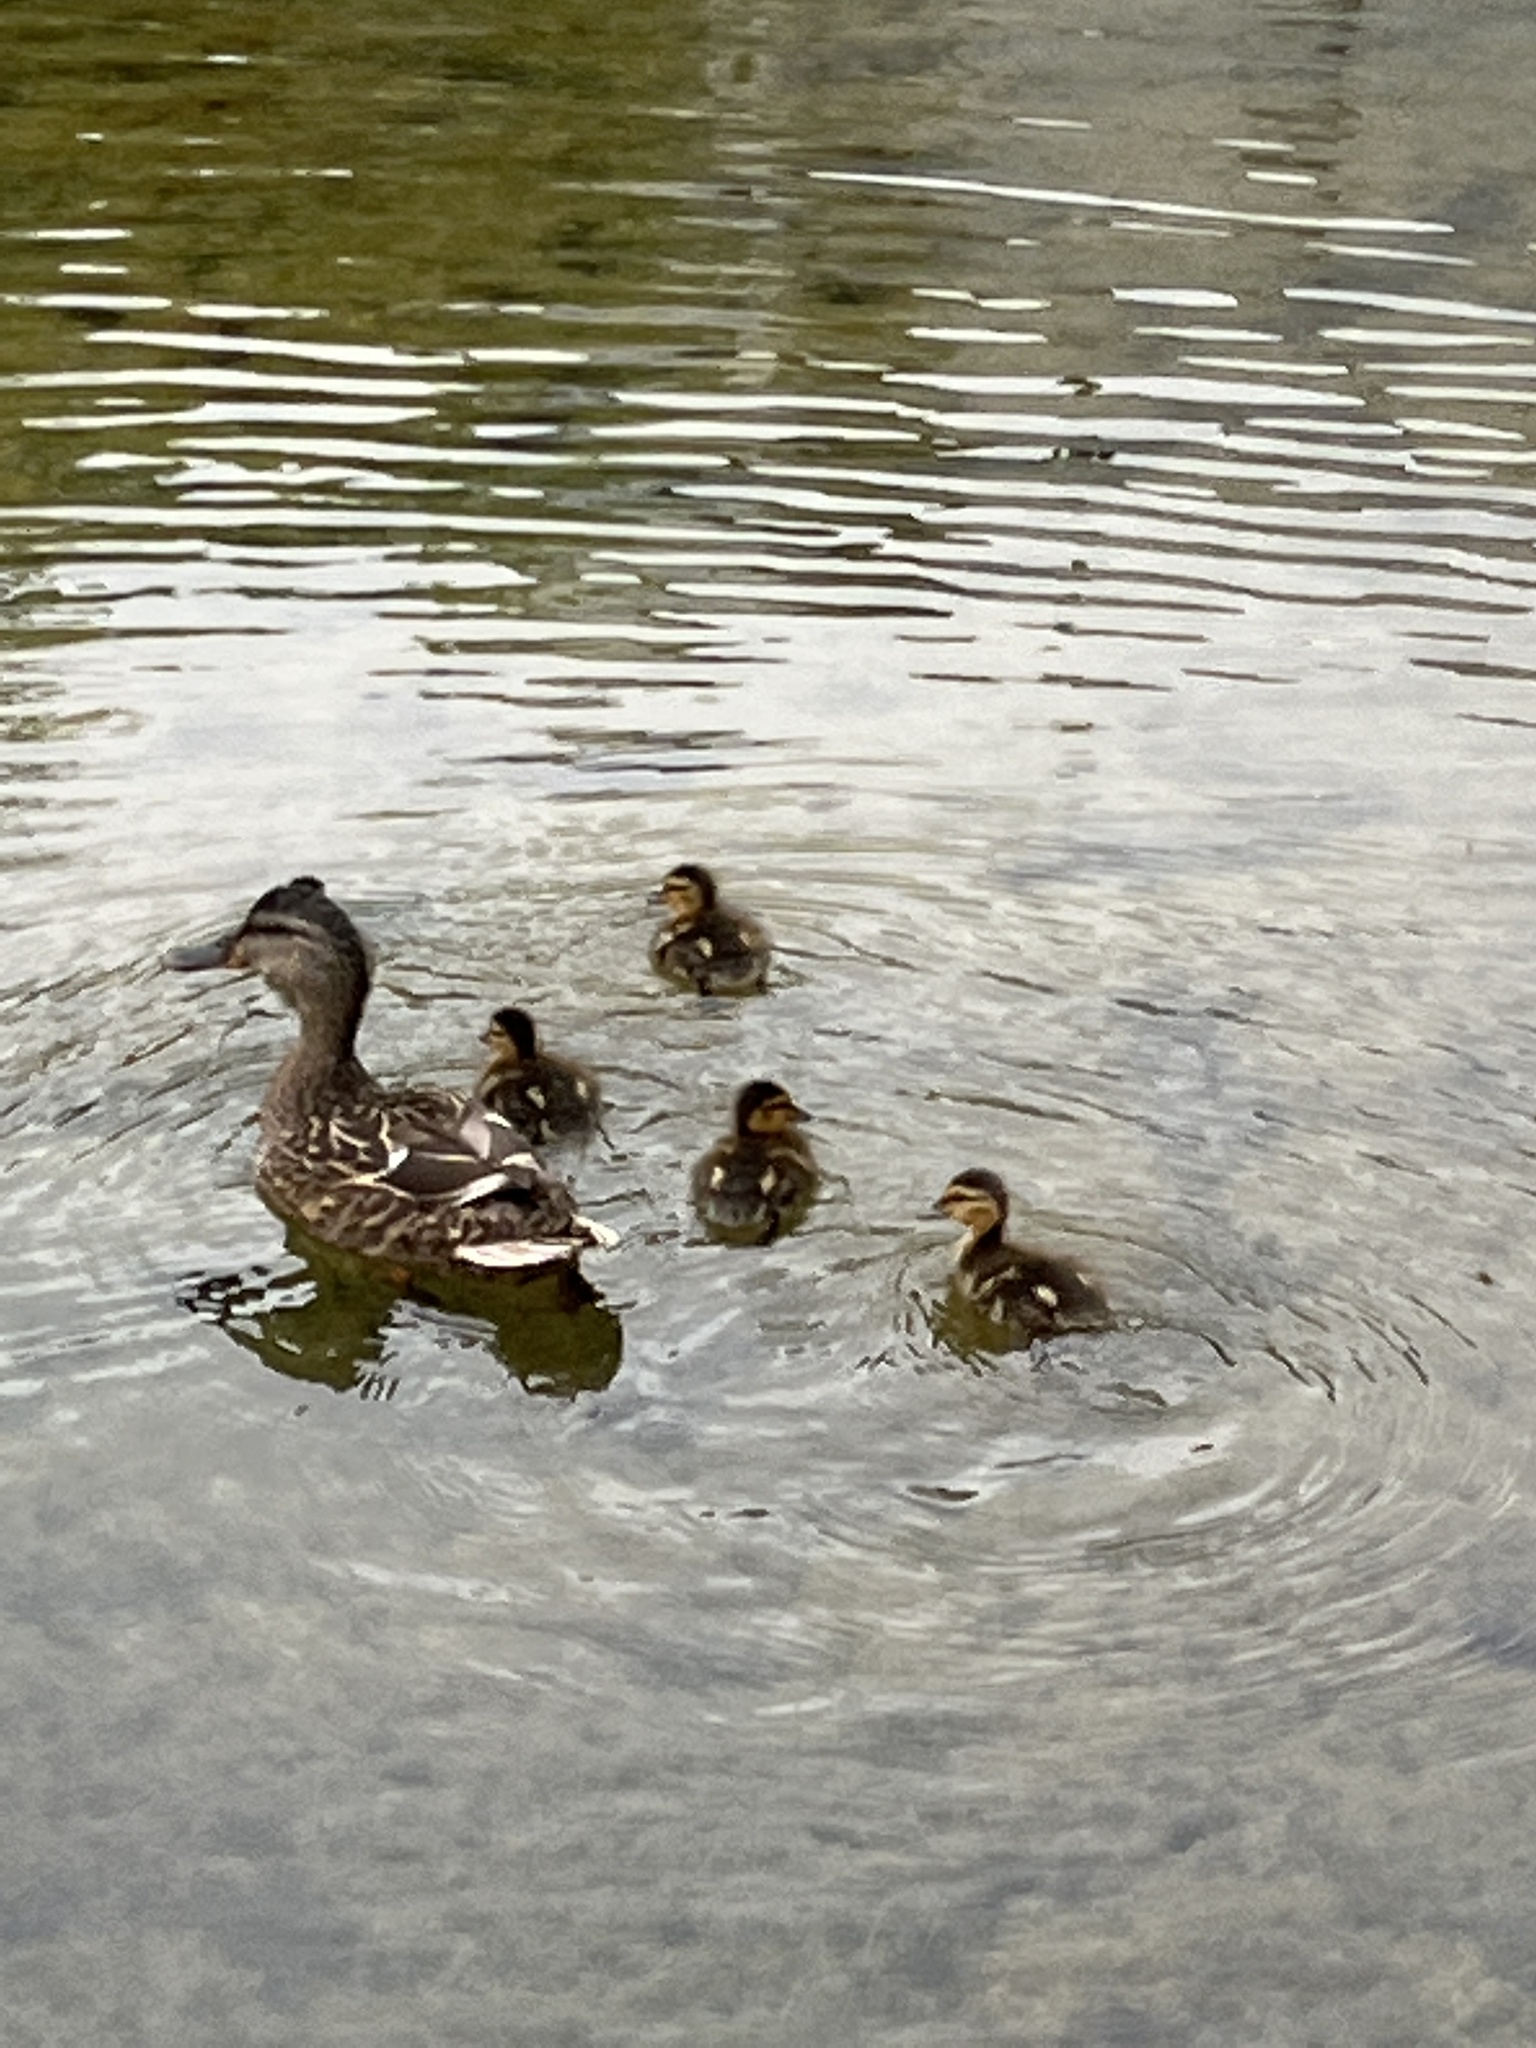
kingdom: Animalia
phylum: Chordata
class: Aves
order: Anseriformes
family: Anatidae
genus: Anas
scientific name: Anas platyrhynchos
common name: Mallard
